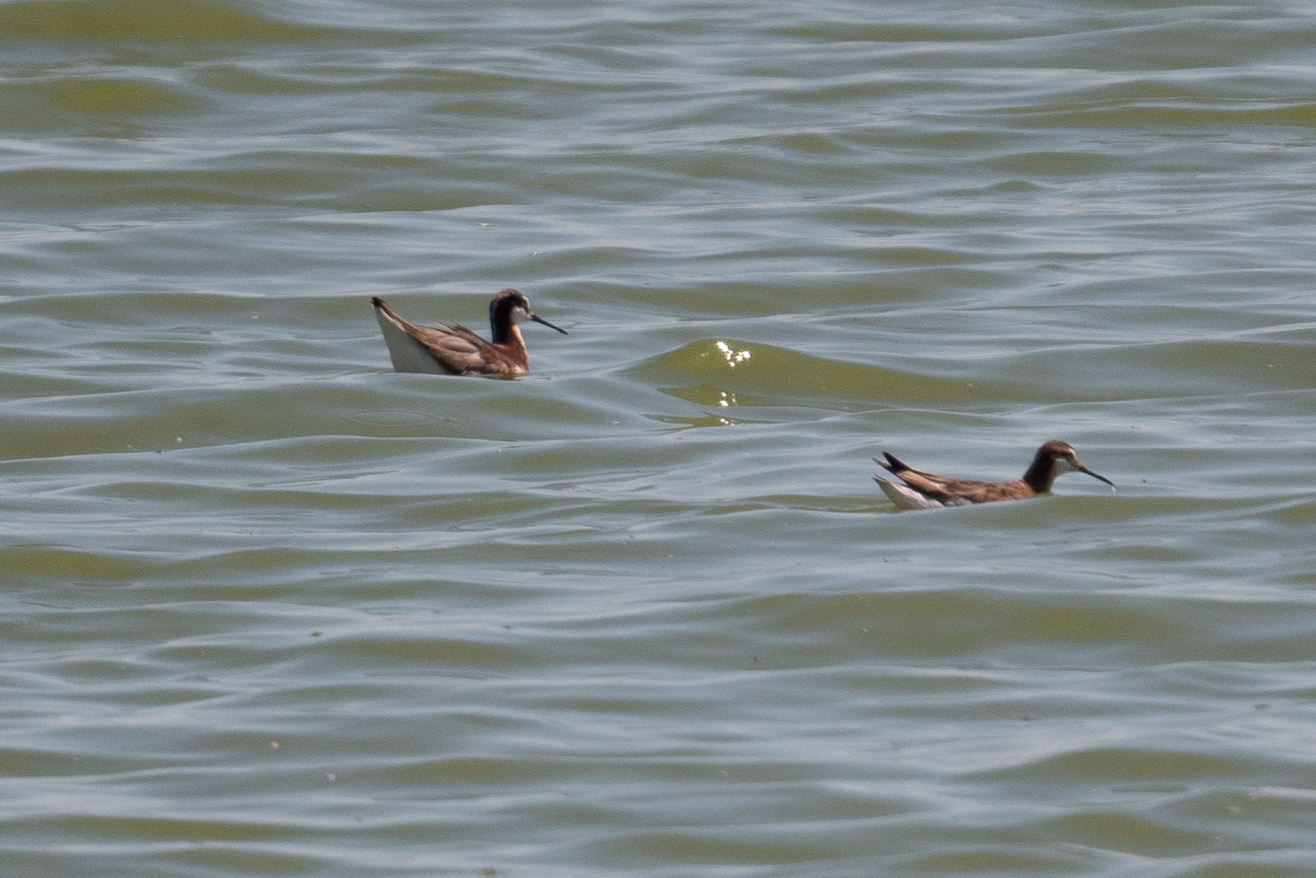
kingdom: Animalia
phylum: Chordata
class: Aves
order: Charadriiformes
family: Scolopacidae
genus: Phalaropus
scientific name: Phalaropus tricolor
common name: Wilson's phalarope
